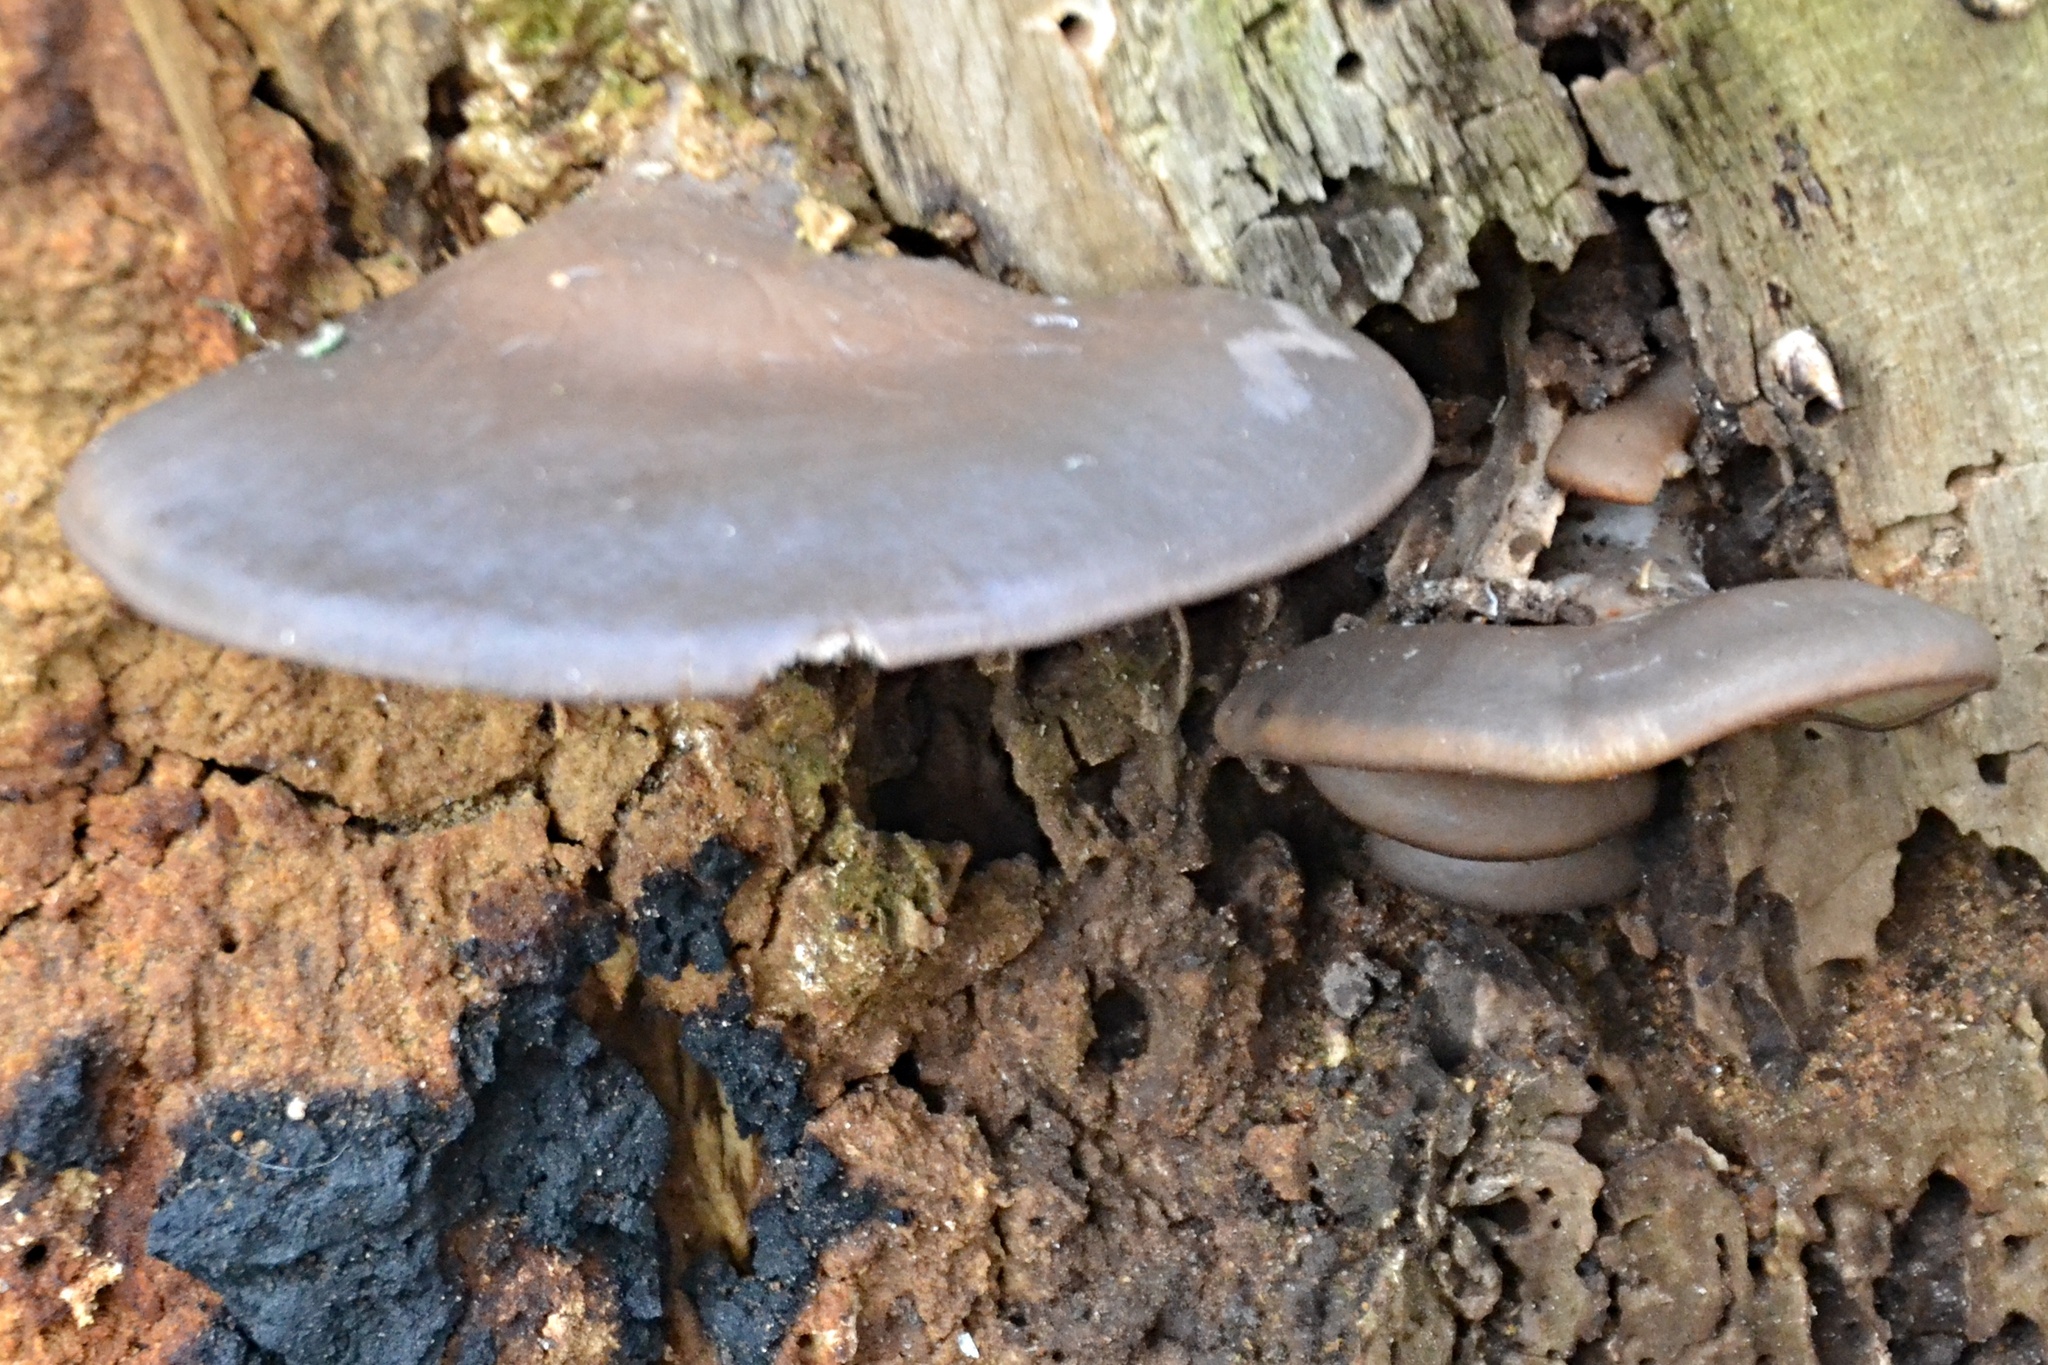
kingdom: Fungi
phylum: Basidiomycota
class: Agaricomycetes
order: Agaricales
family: Pleurotaceae
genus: Pleurotus
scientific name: Pleurotus ostreatus
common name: Oyster mushroom
